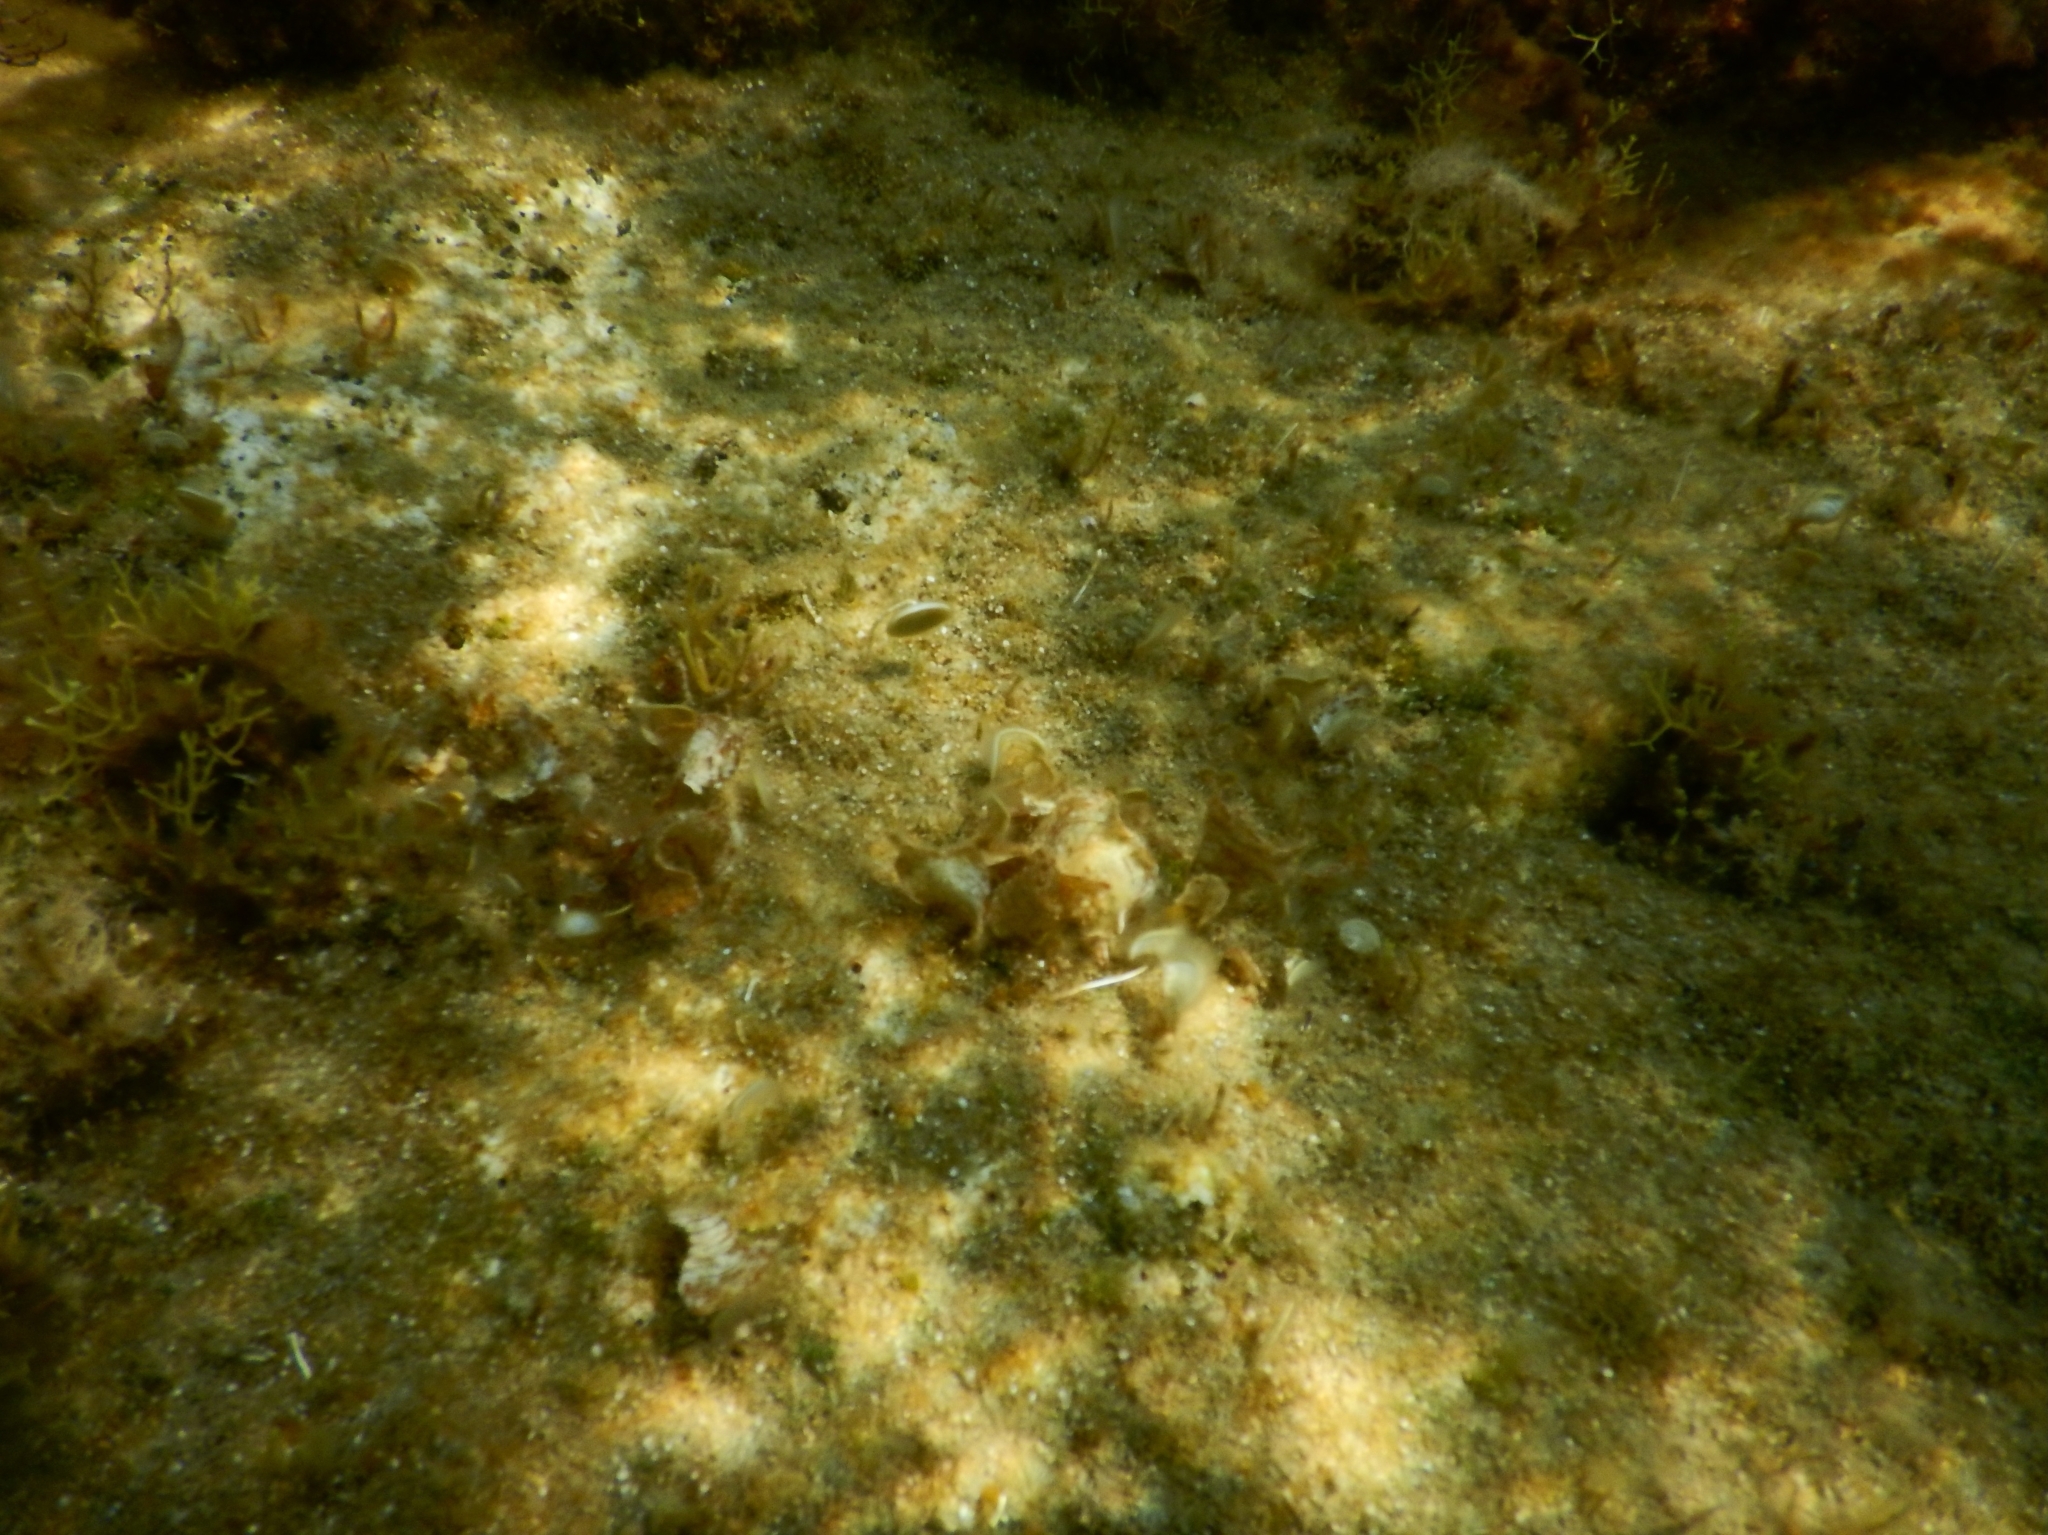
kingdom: Plantae
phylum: Chlorophyta
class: Ulvophyceae
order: Dasycladales
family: Polyphysaceae
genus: Acetabularia
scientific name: Acetabularia acetabulum
